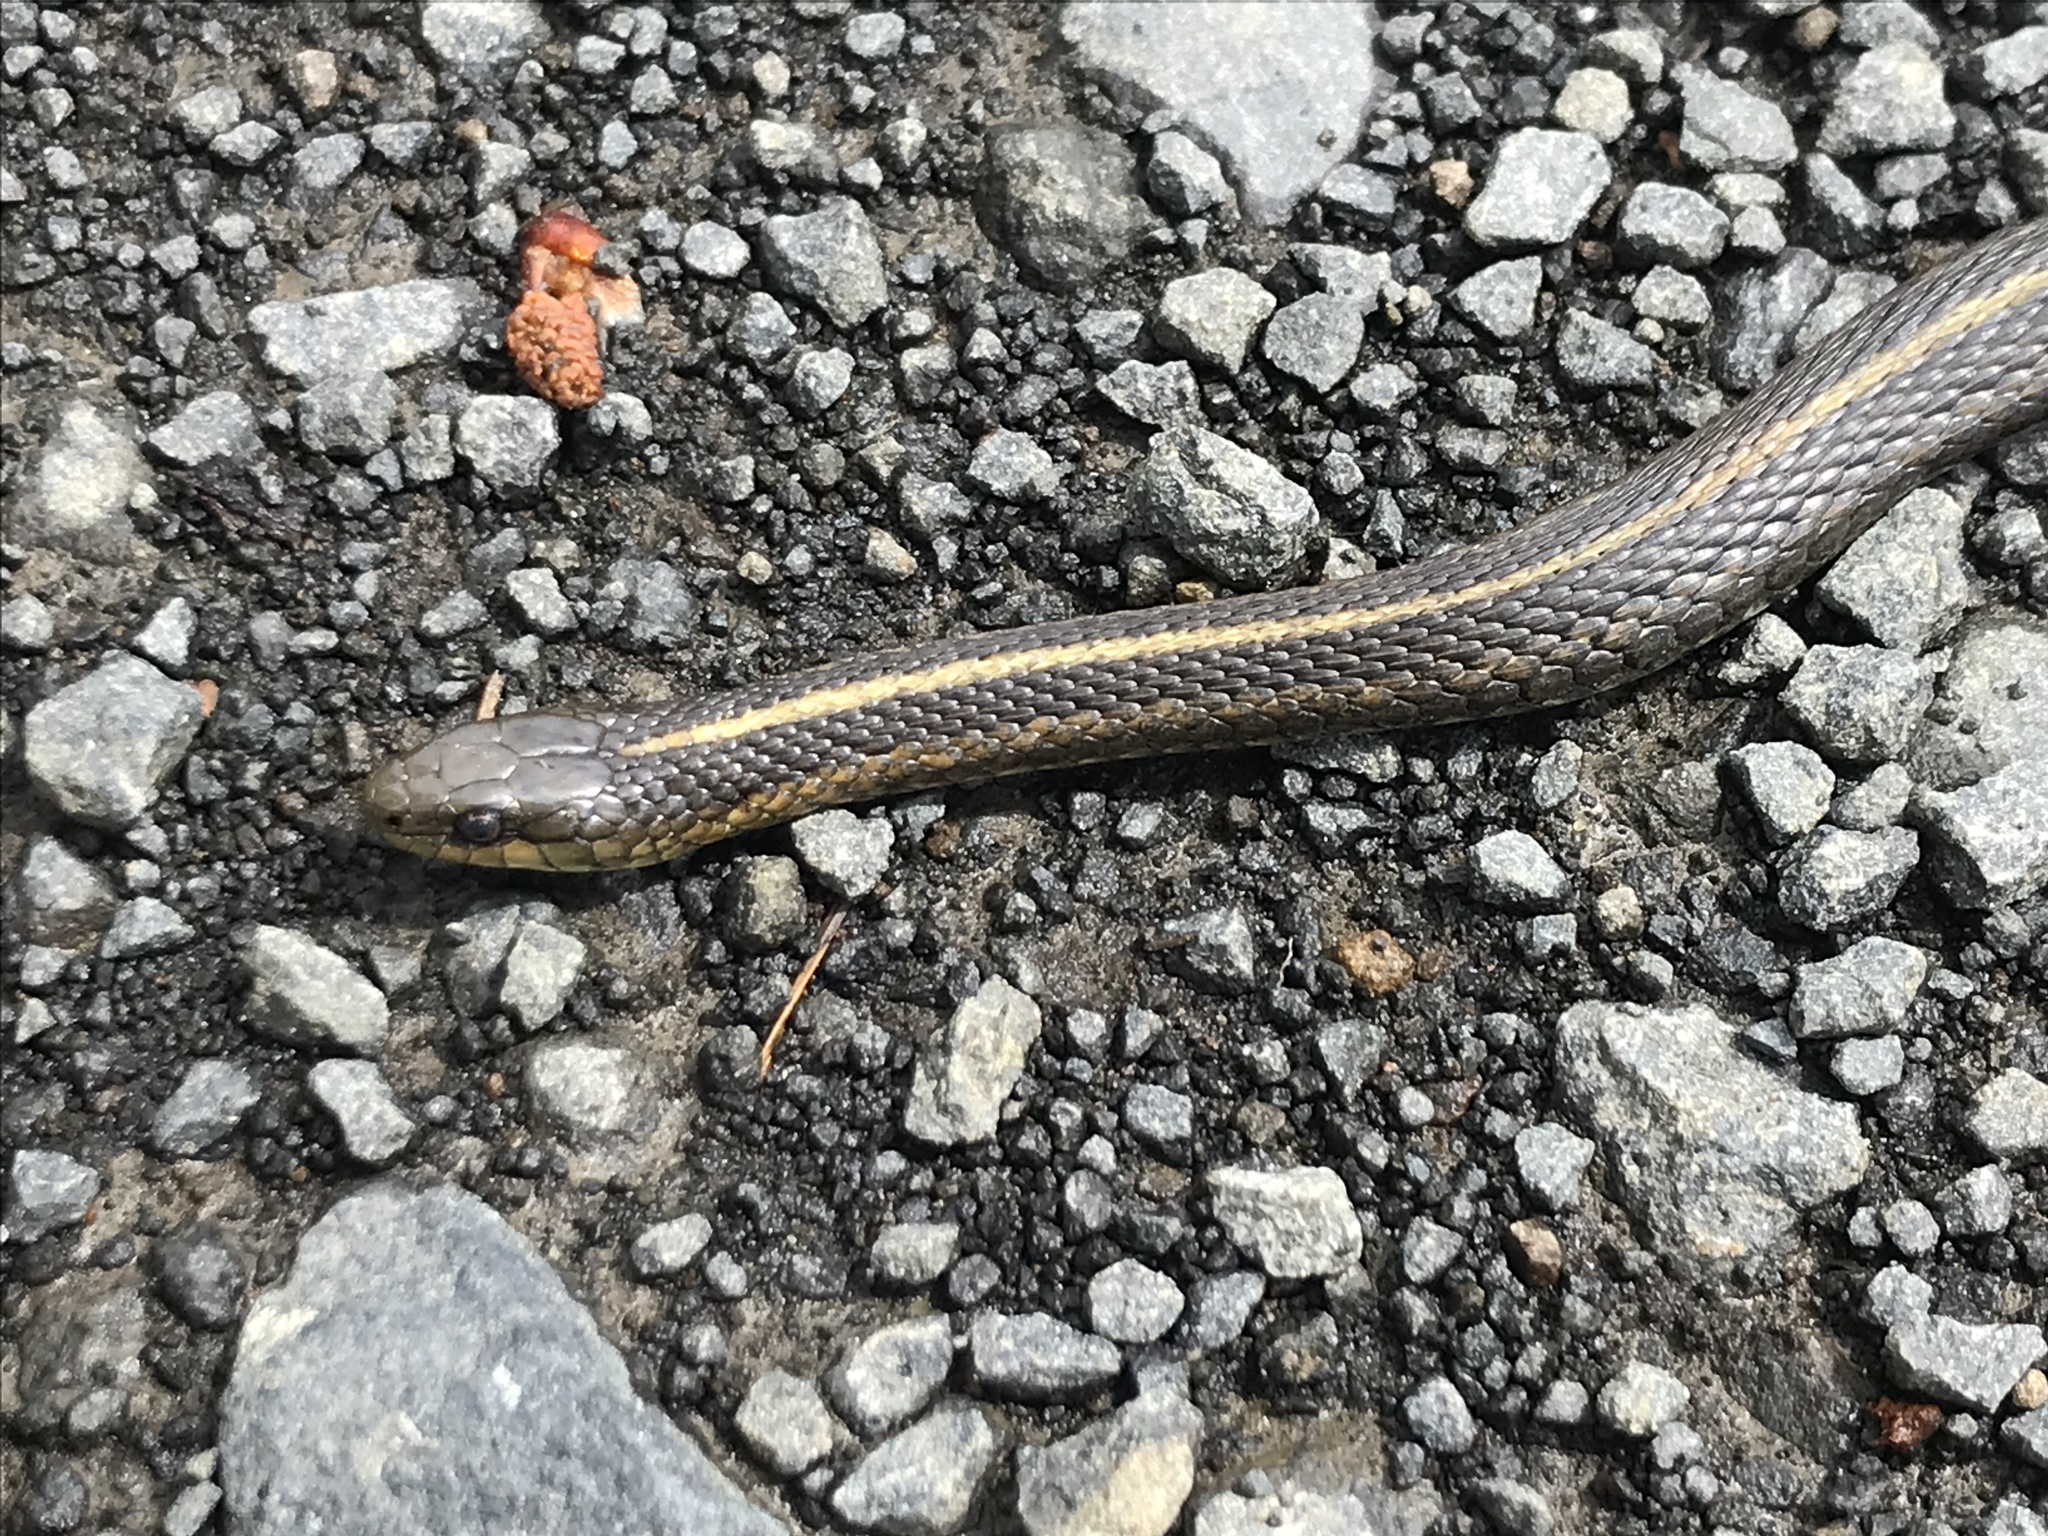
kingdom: Animalia
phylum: Chordata
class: Squamata
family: Colubridae
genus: Thamnophis
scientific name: Thamnophis ordinoides
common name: Northwestern garter snake
